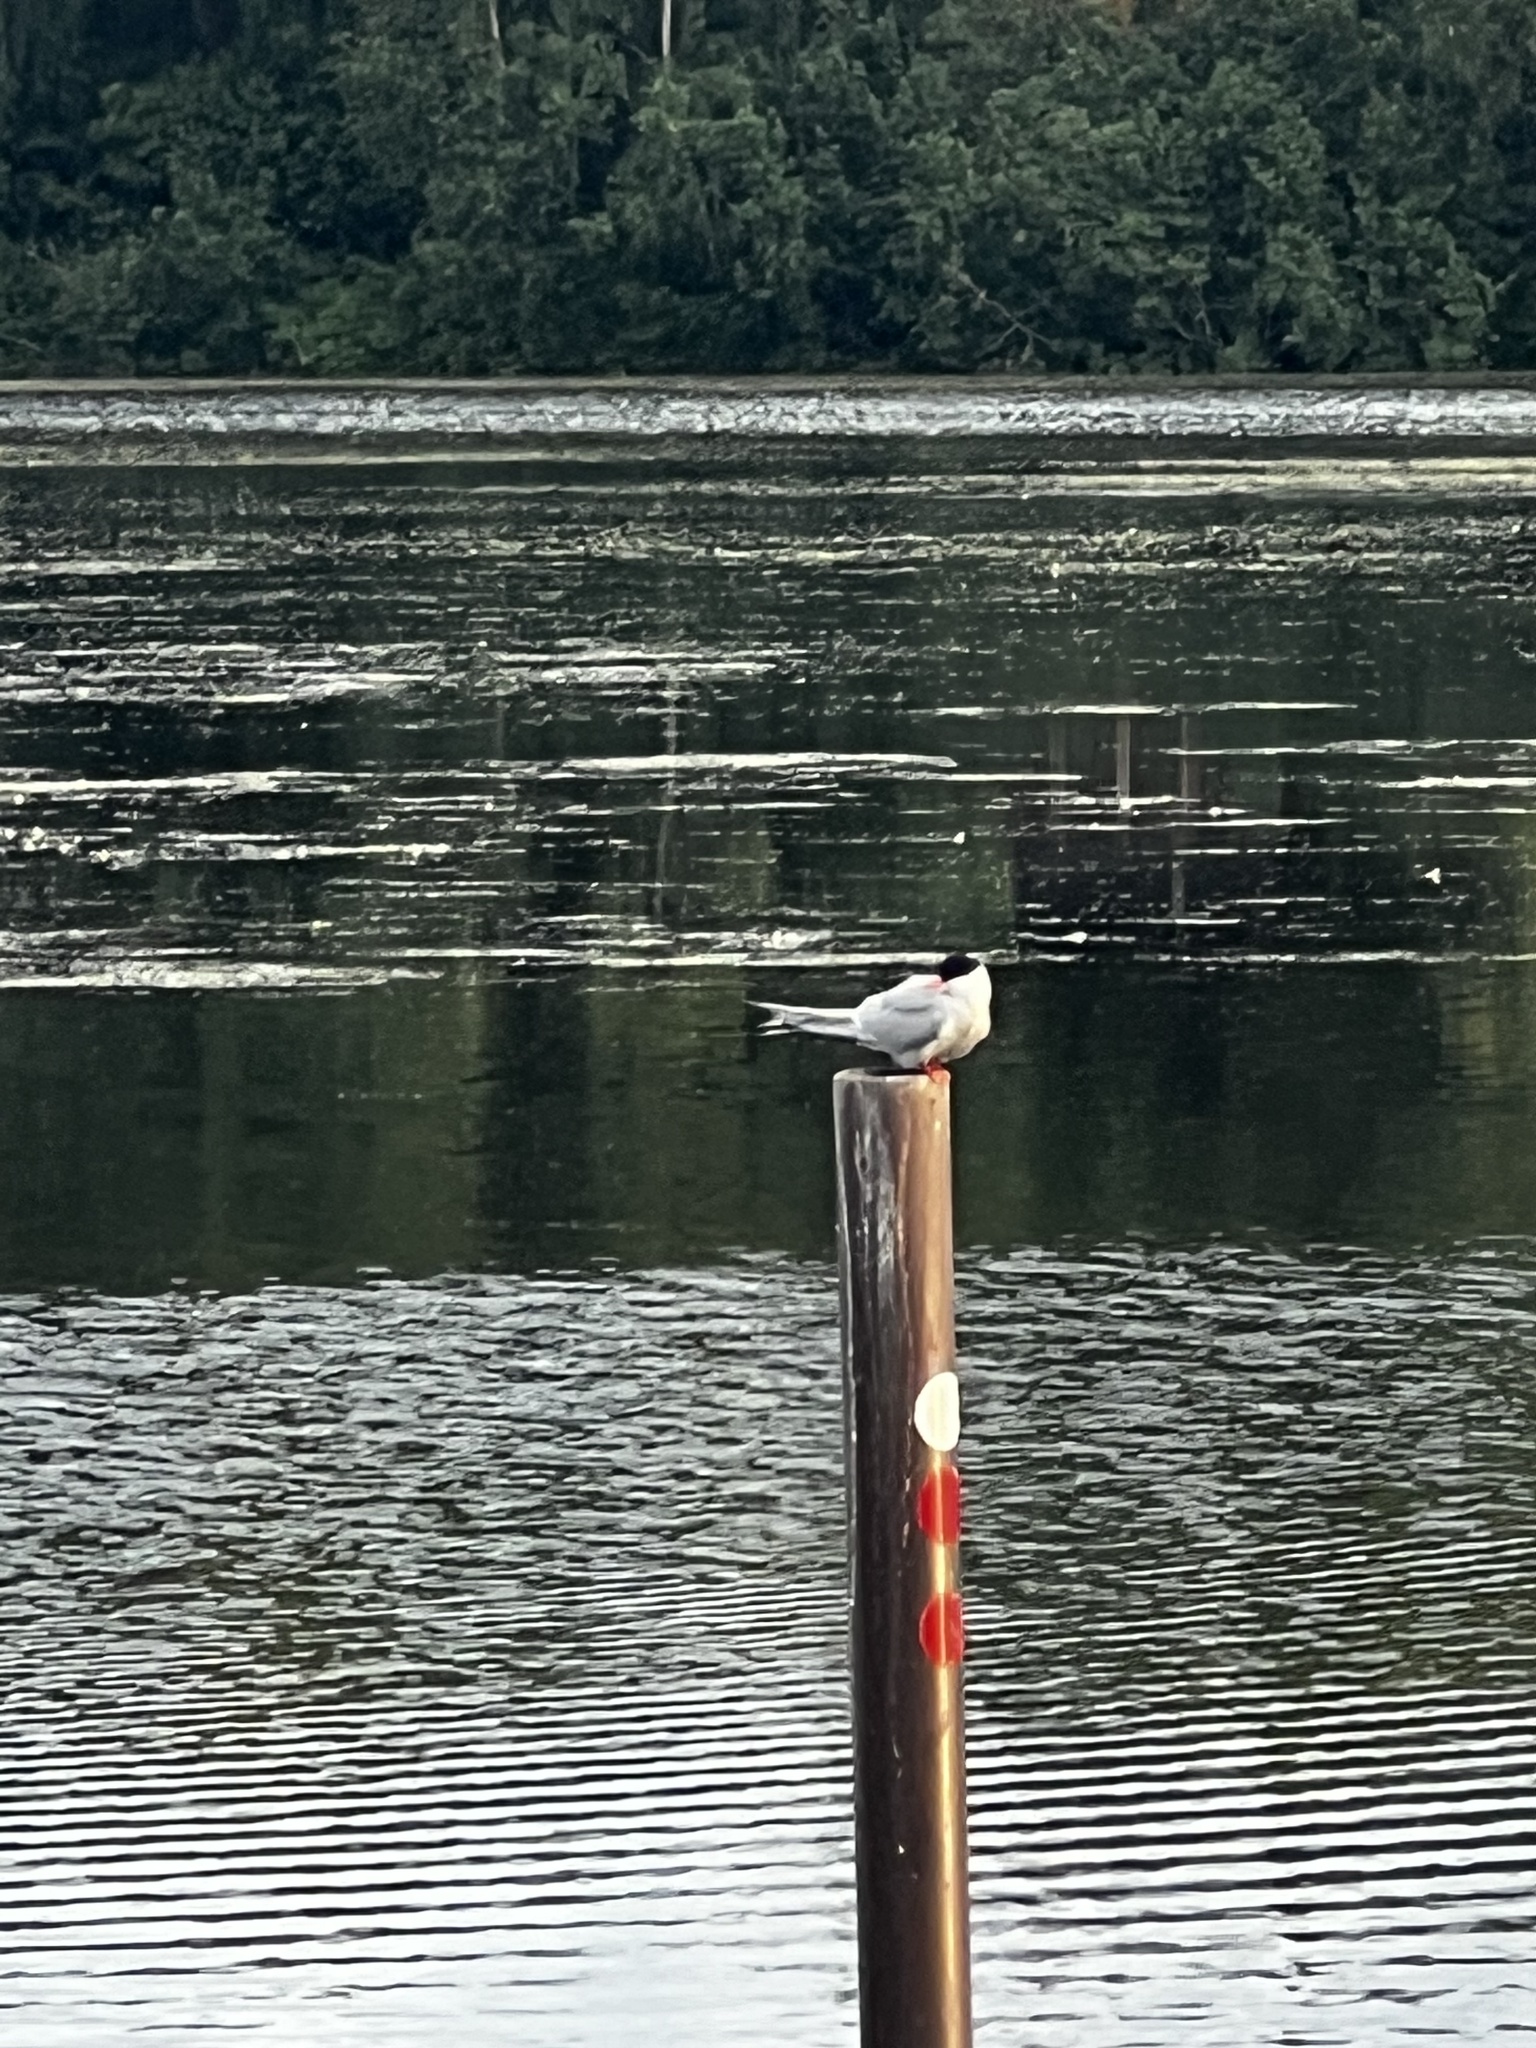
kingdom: Animalia
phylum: Chordata
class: Aves
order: Charadriiformes
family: Laridae
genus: Sterna
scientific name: Sterna paradisaea
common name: Arctic tern
